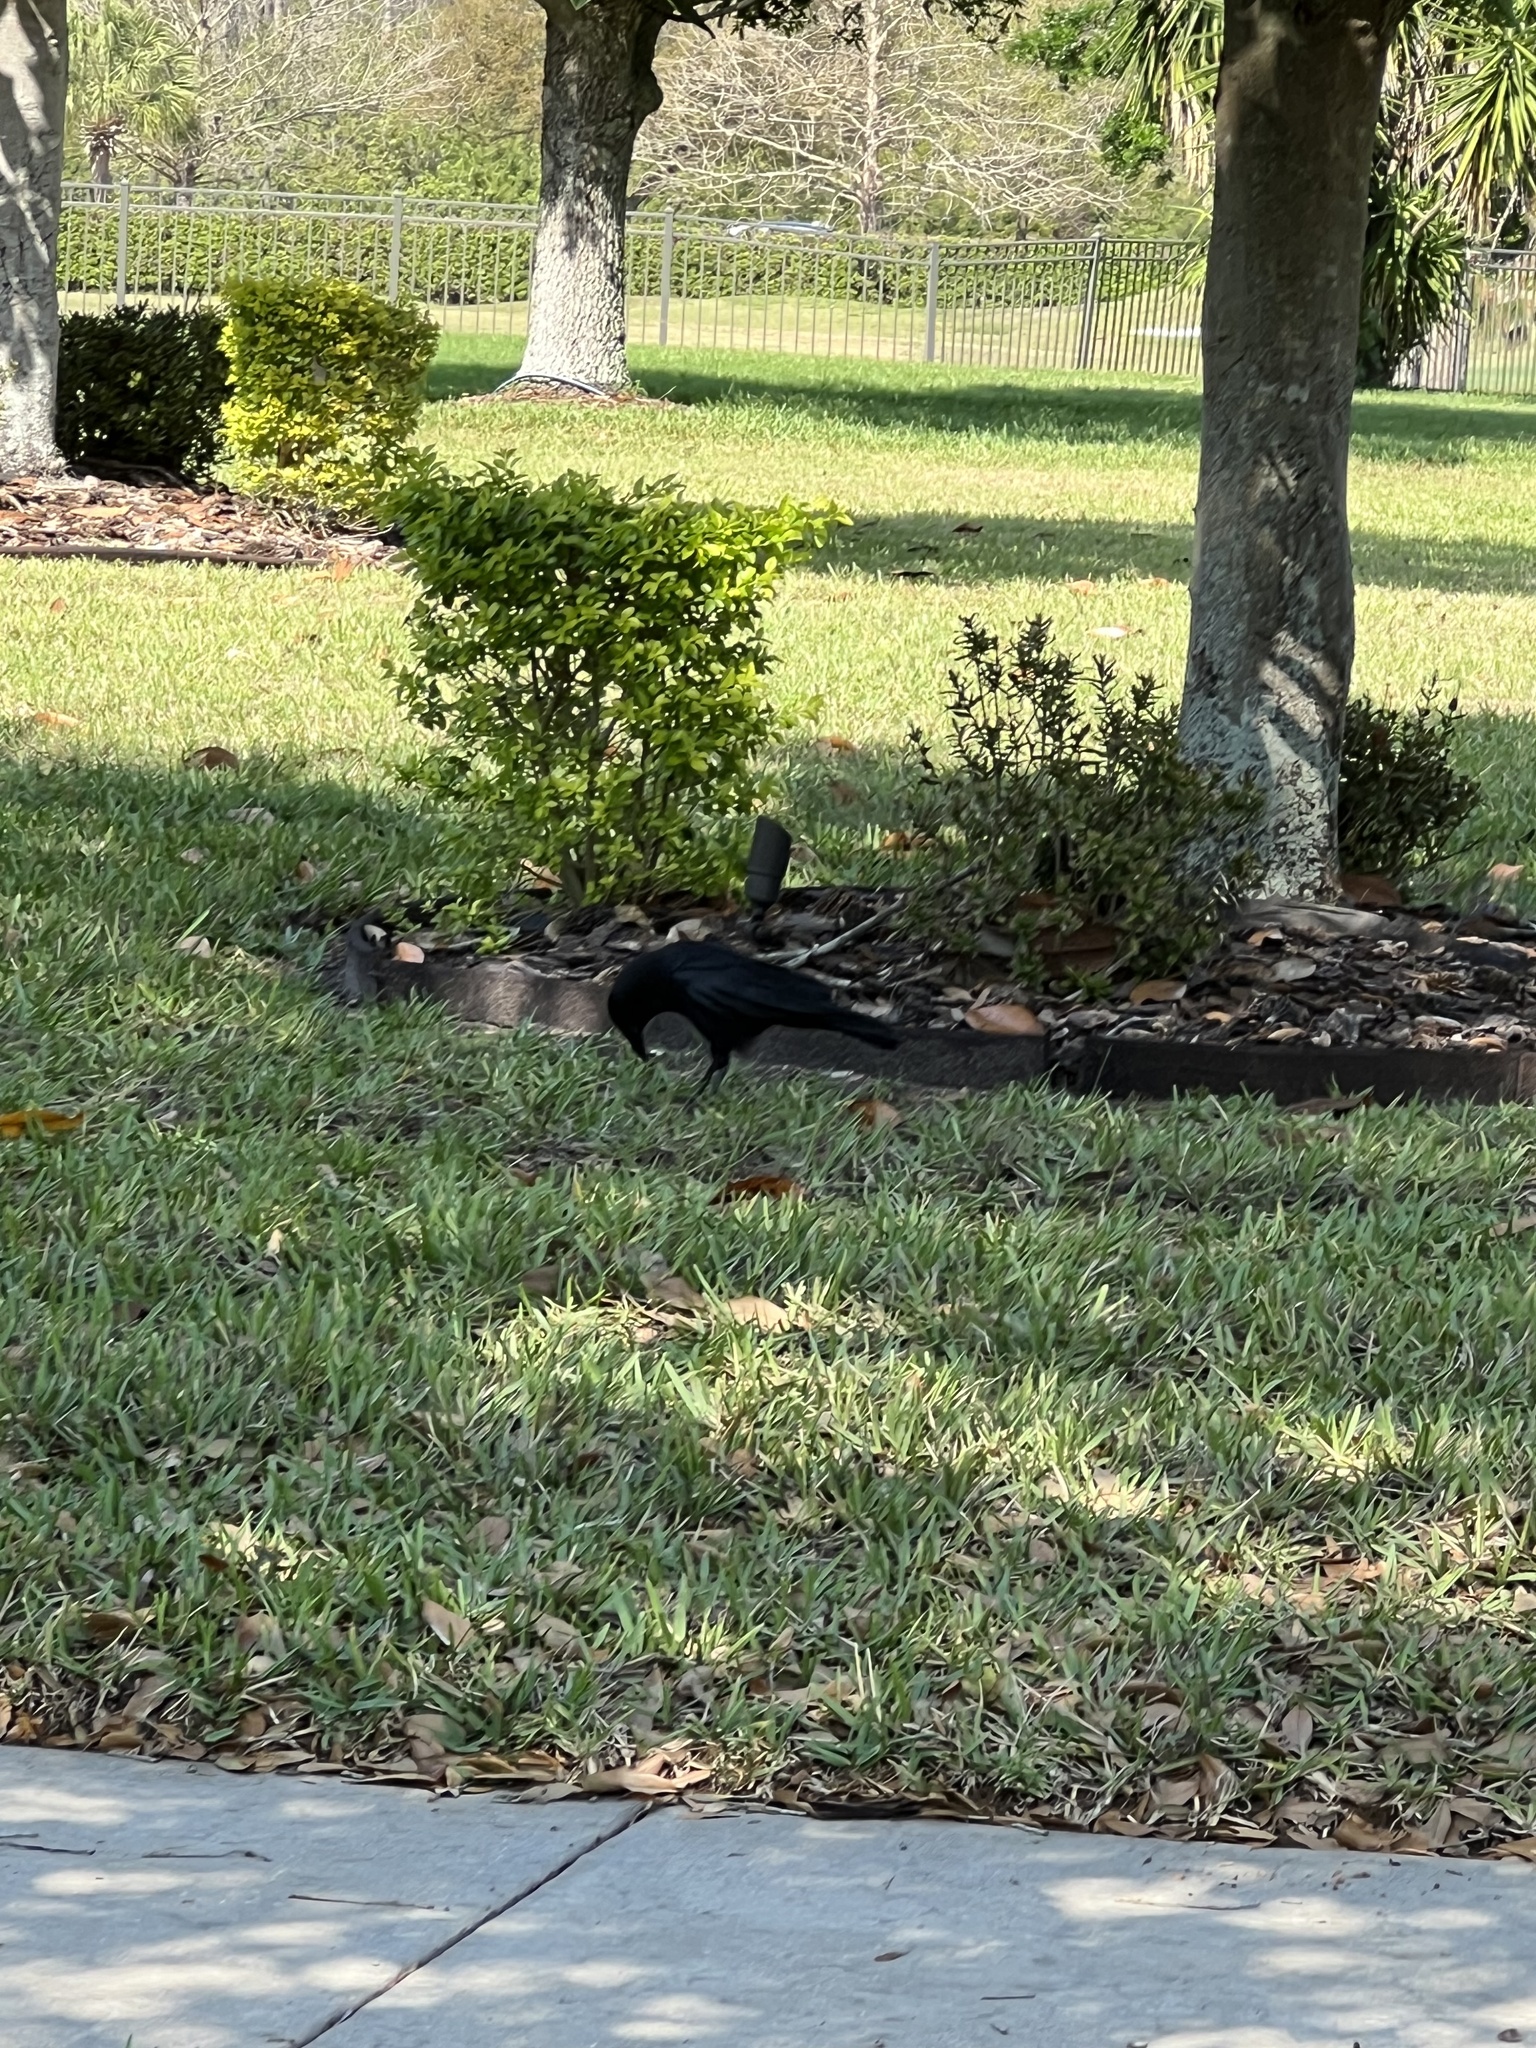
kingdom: Animalia
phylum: Chordata
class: Aves
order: Passeriformes
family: Corvidae
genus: Corvus
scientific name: Corvus
